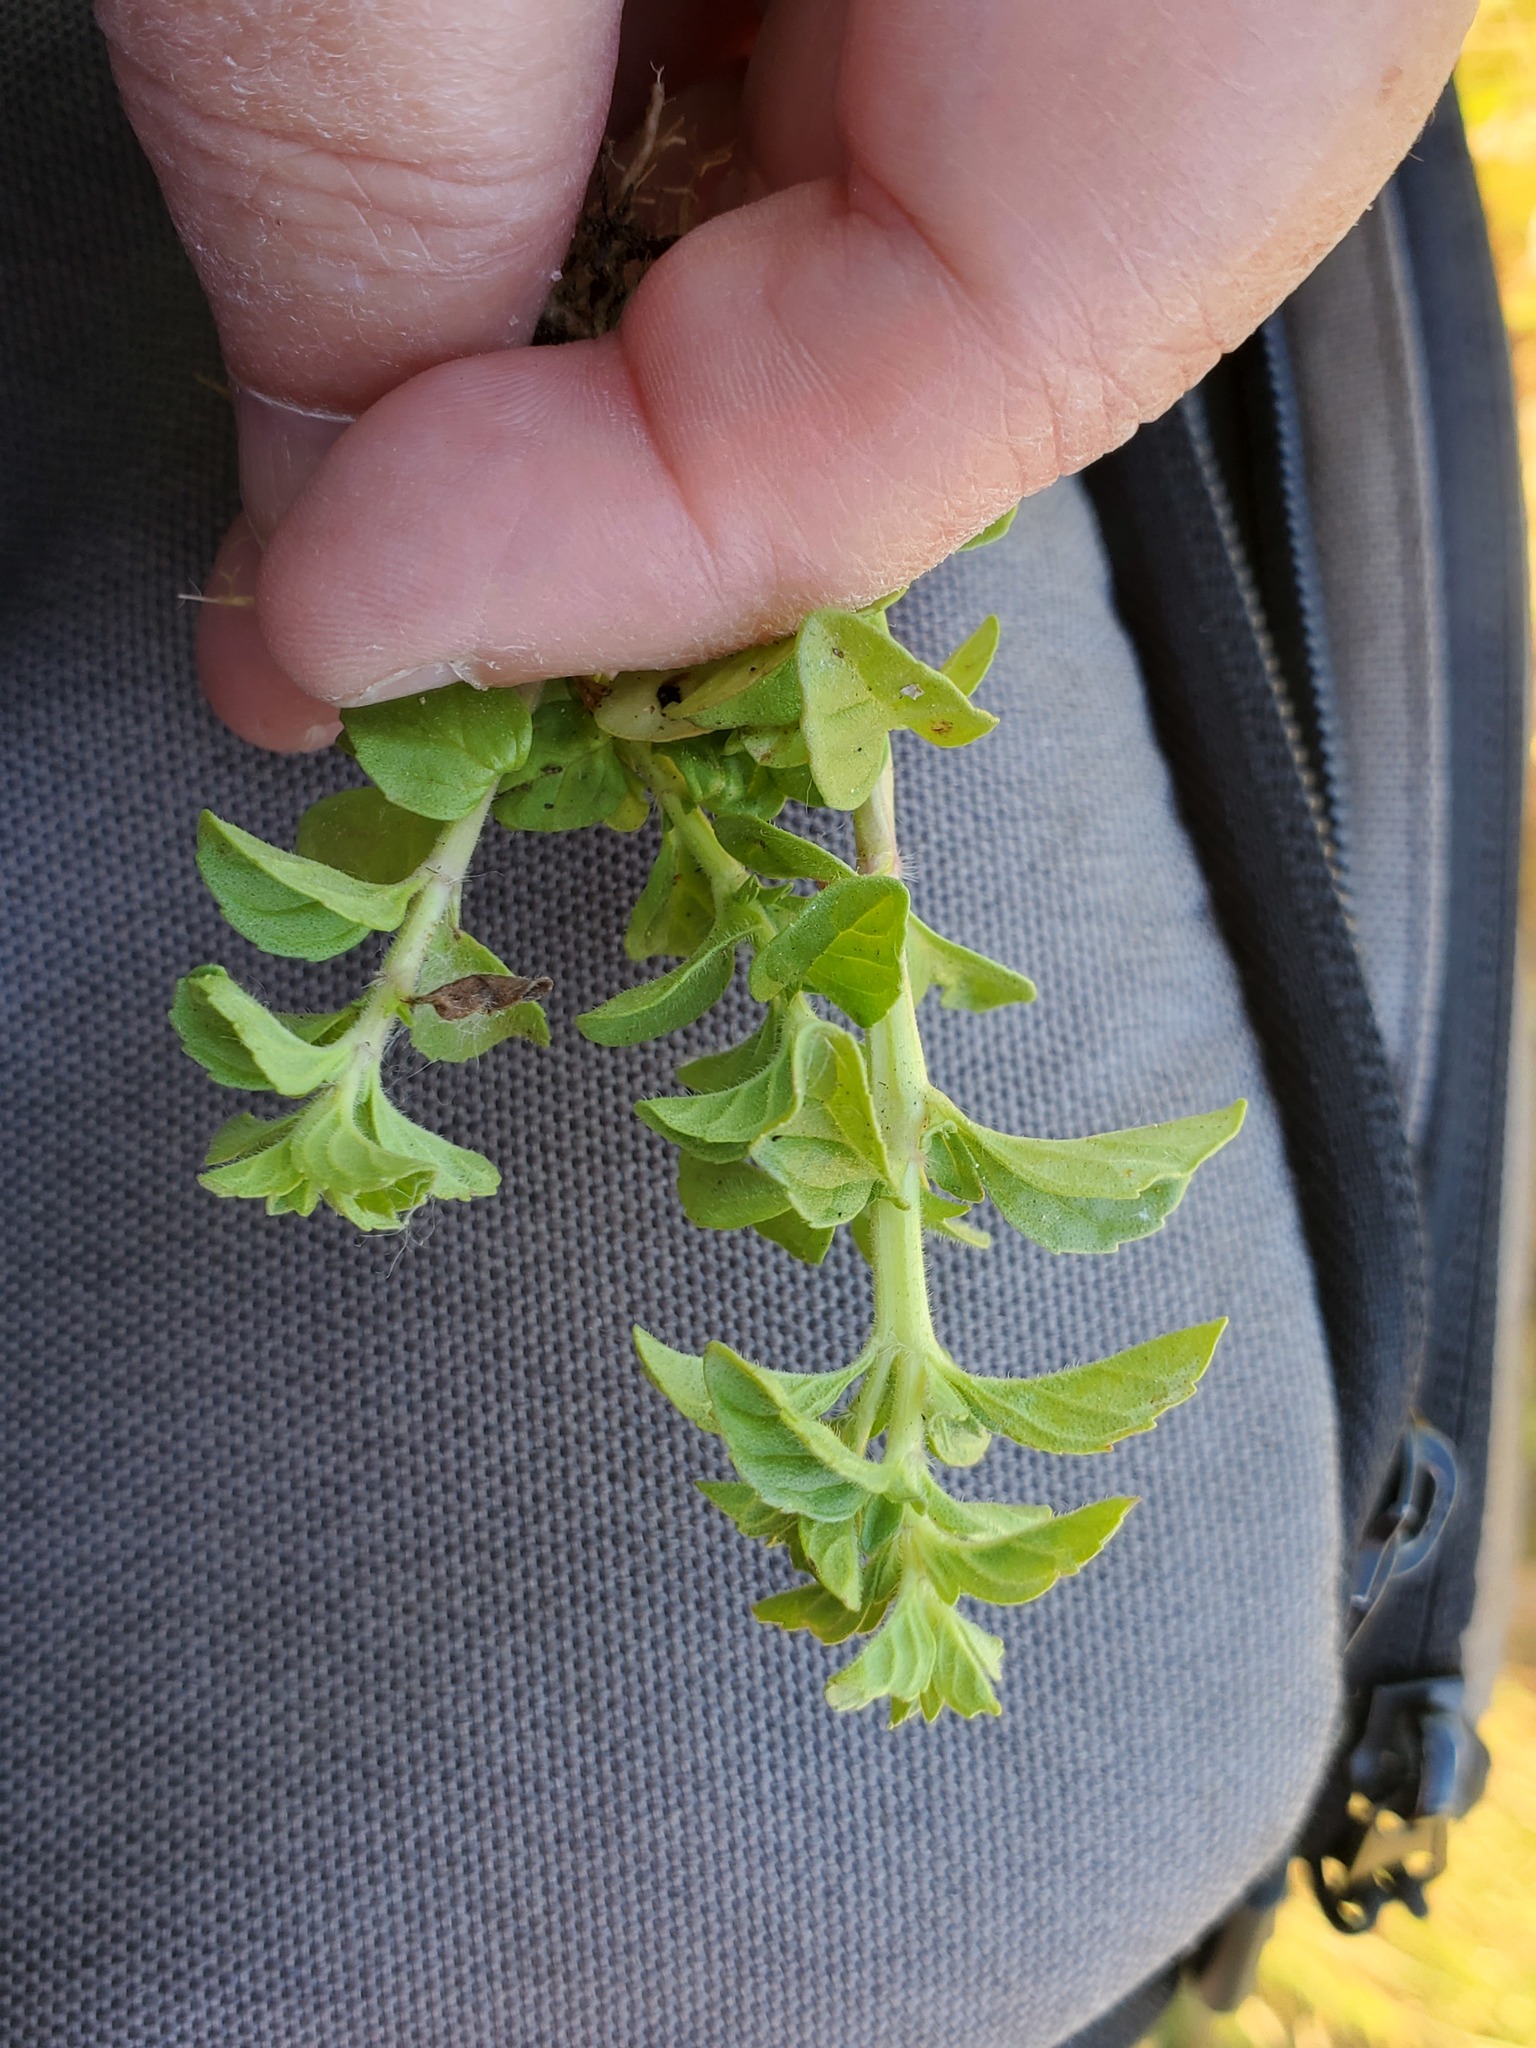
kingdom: Plantae
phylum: Tracheophyta
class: Magnoliopsida
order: Lamiales
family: Lamiaceae
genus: Mentha
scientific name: Mentha pulegium
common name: Pennyroyal
